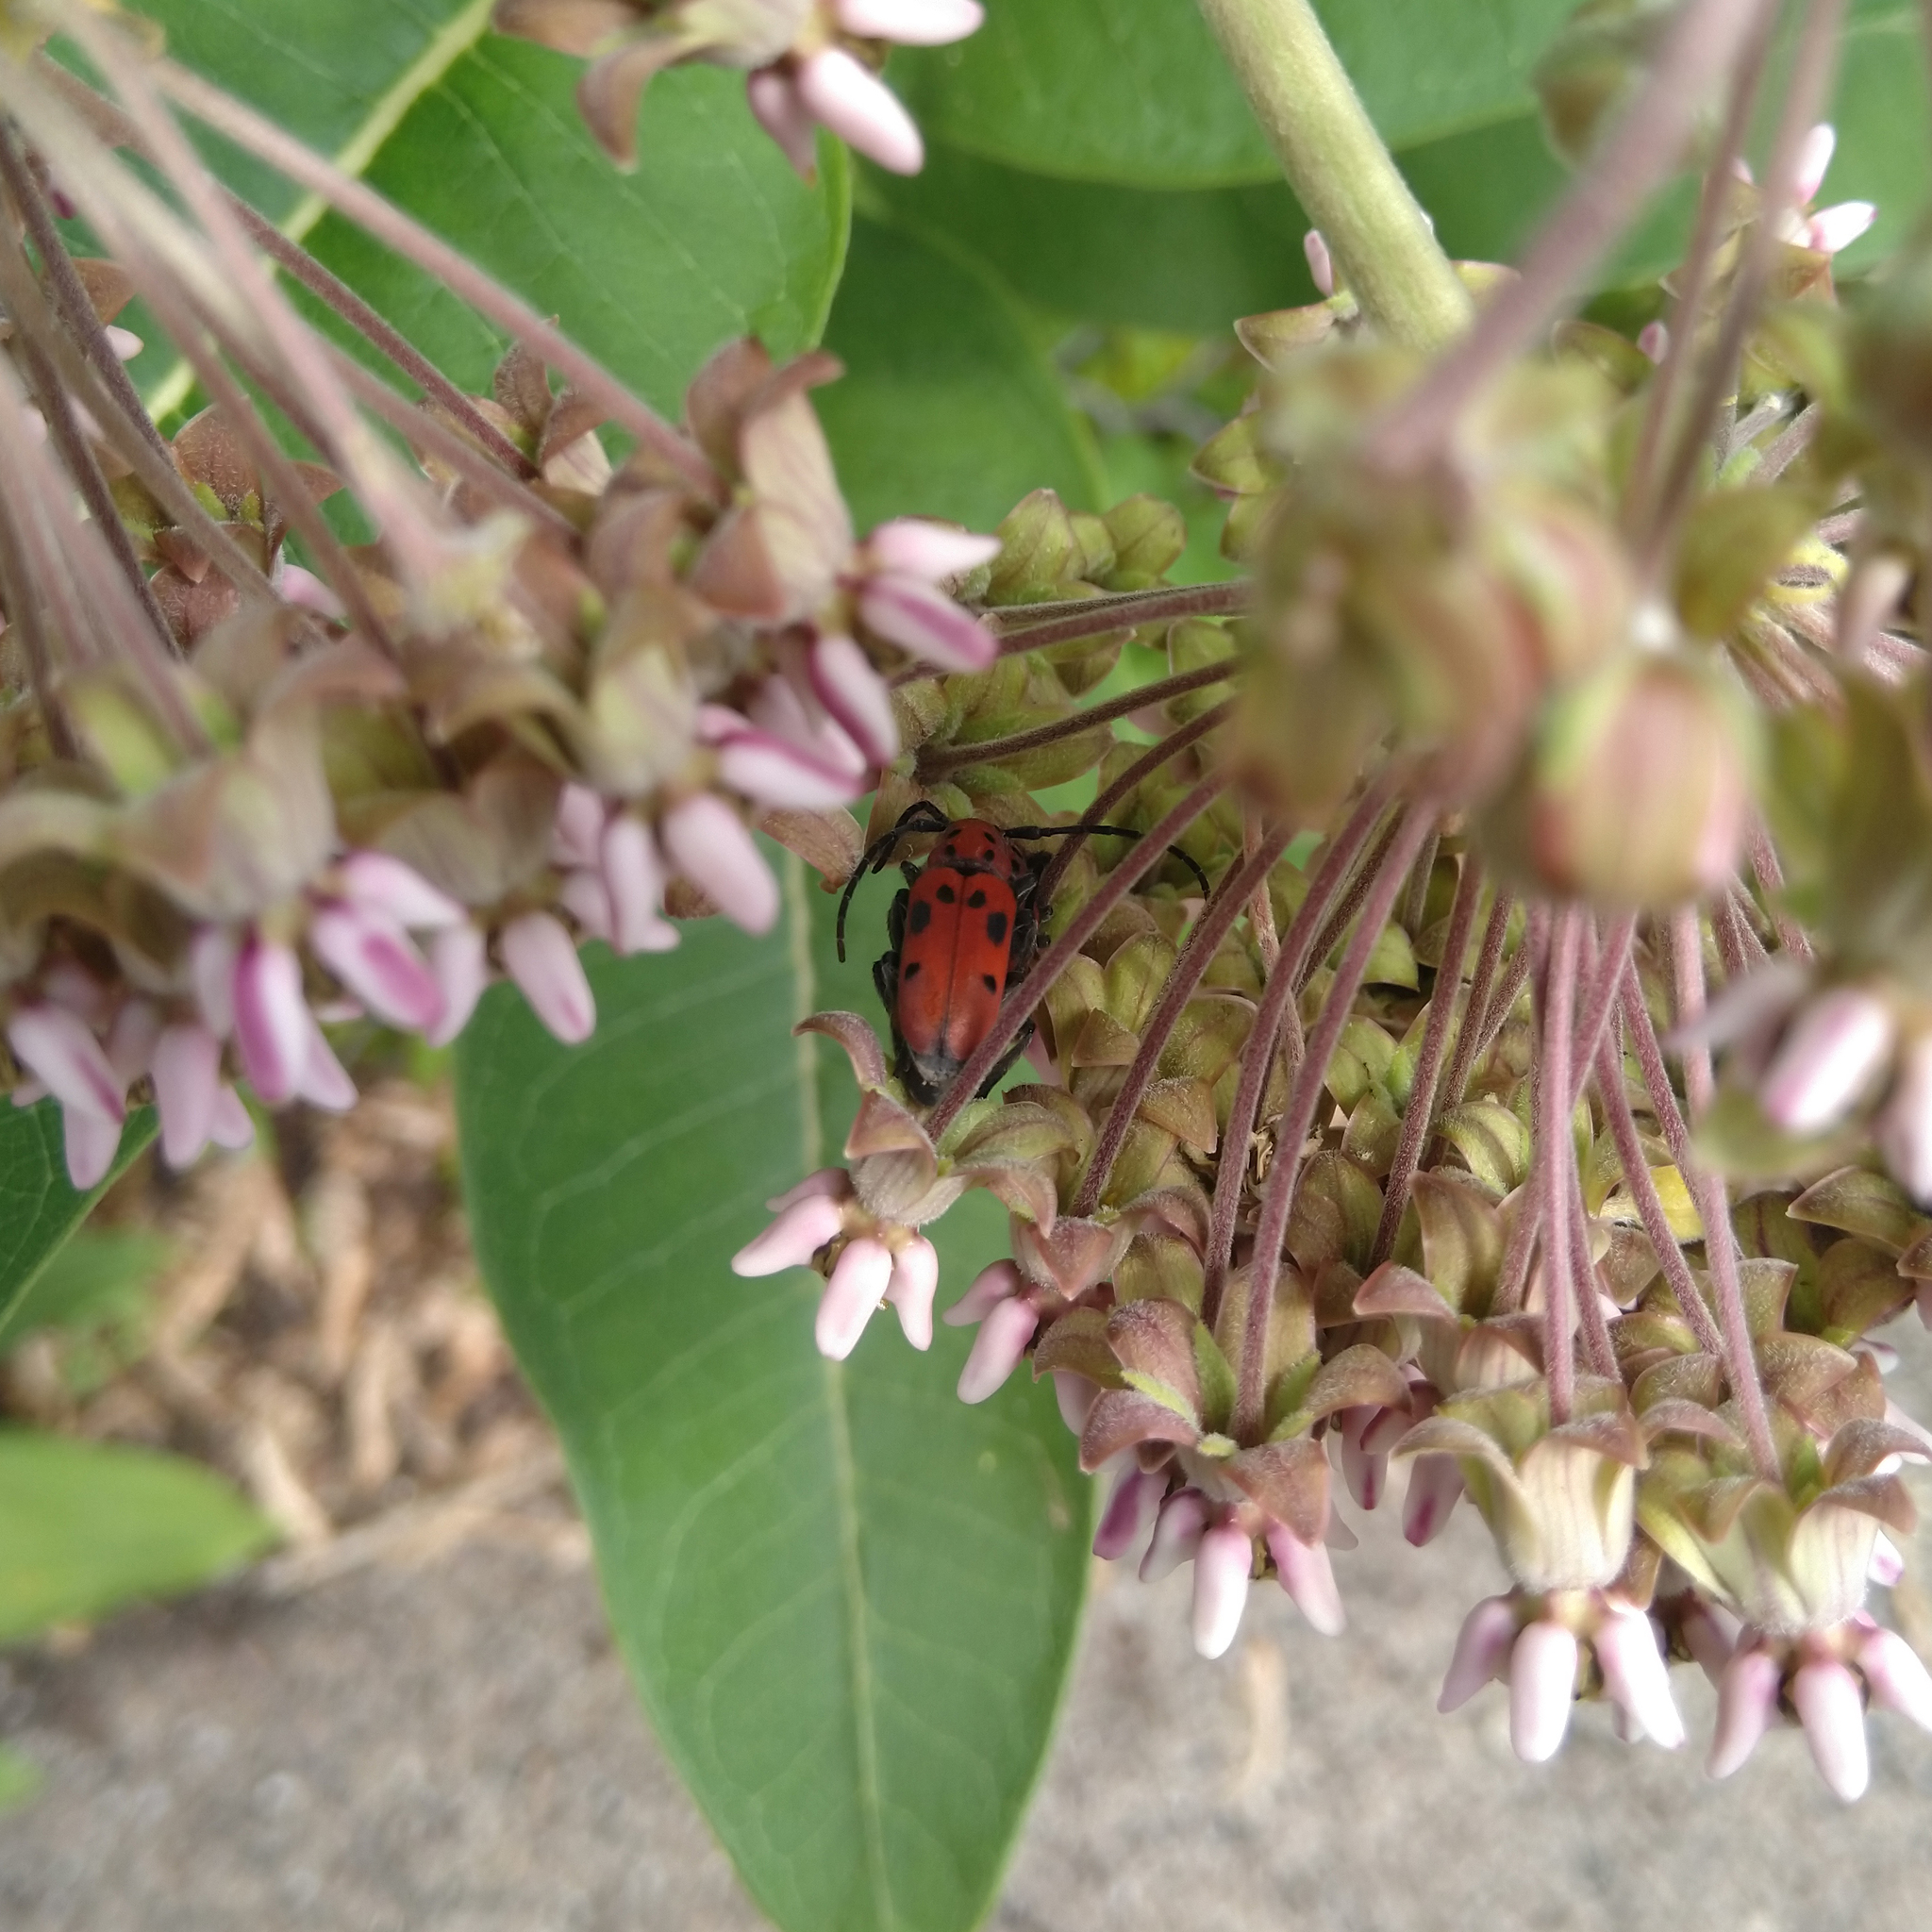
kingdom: Animalia
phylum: Arthropoda
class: Insecta
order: Coleoptera
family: Cerambycidae
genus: Tetraopes
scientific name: Tetraopes tetrophthalmus
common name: Red milkweed beetle
